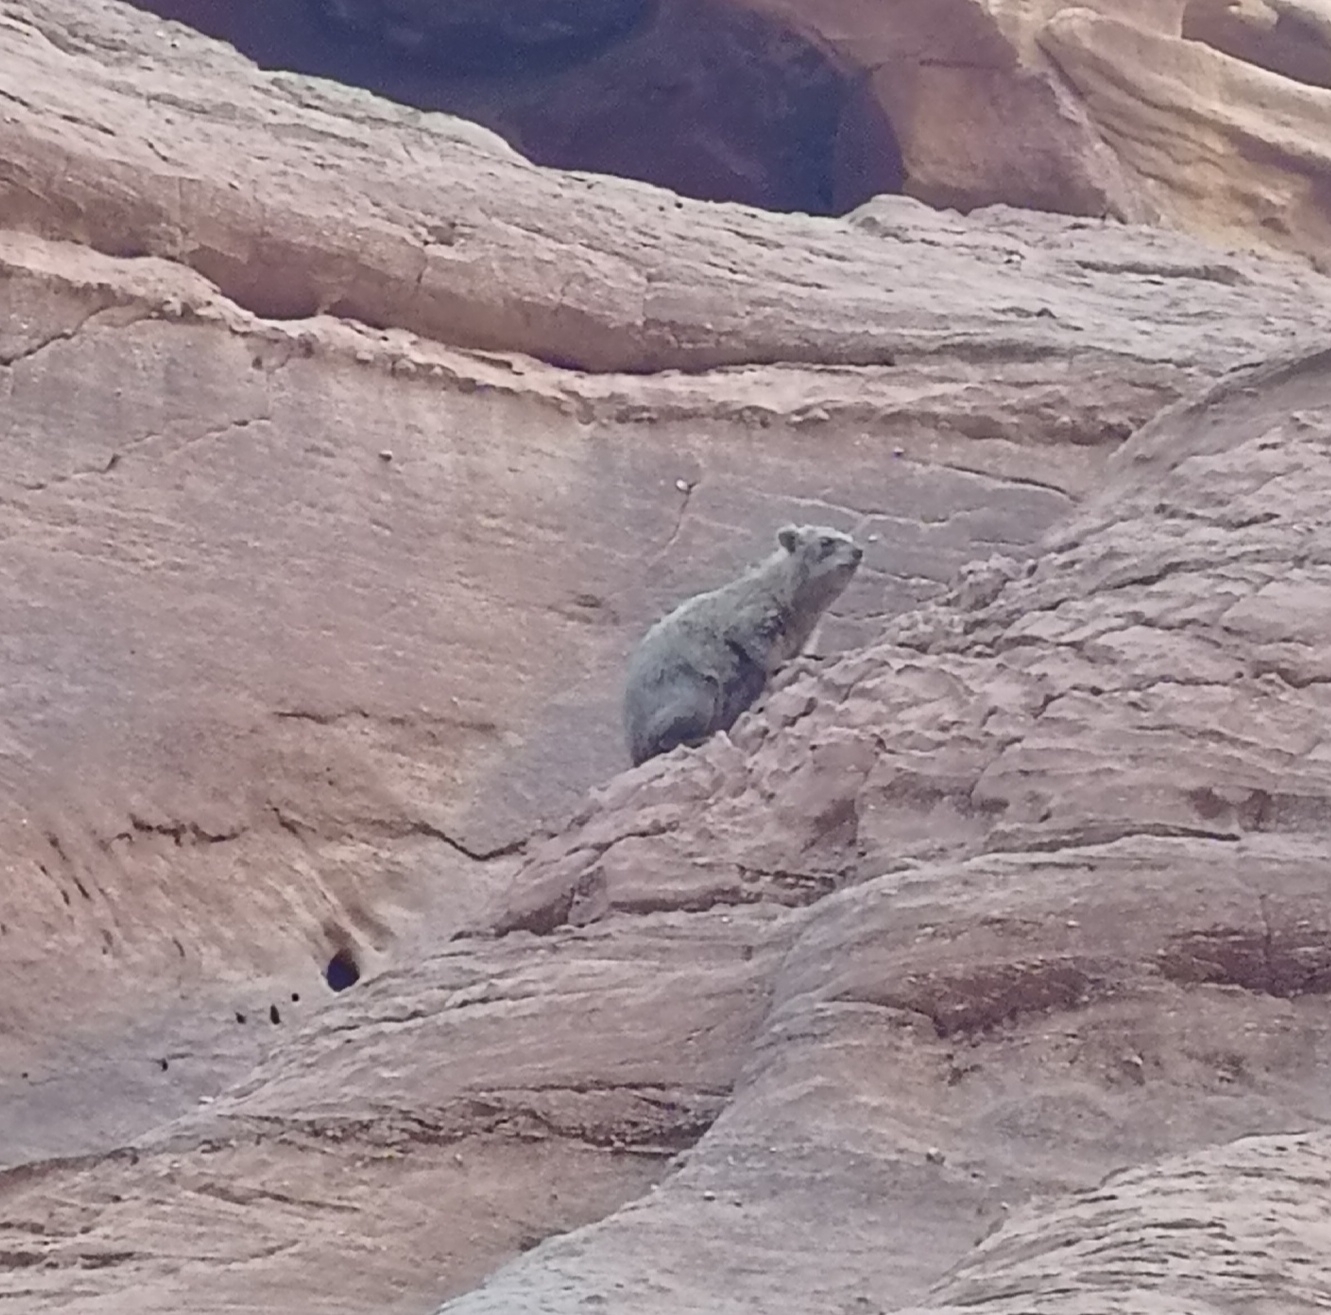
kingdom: Animalia
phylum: Chordata
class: Mammalia
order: Hyracoidea
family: Procaviidae
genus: Procavia
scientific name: Procavia capensis
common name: Rock hyrax
